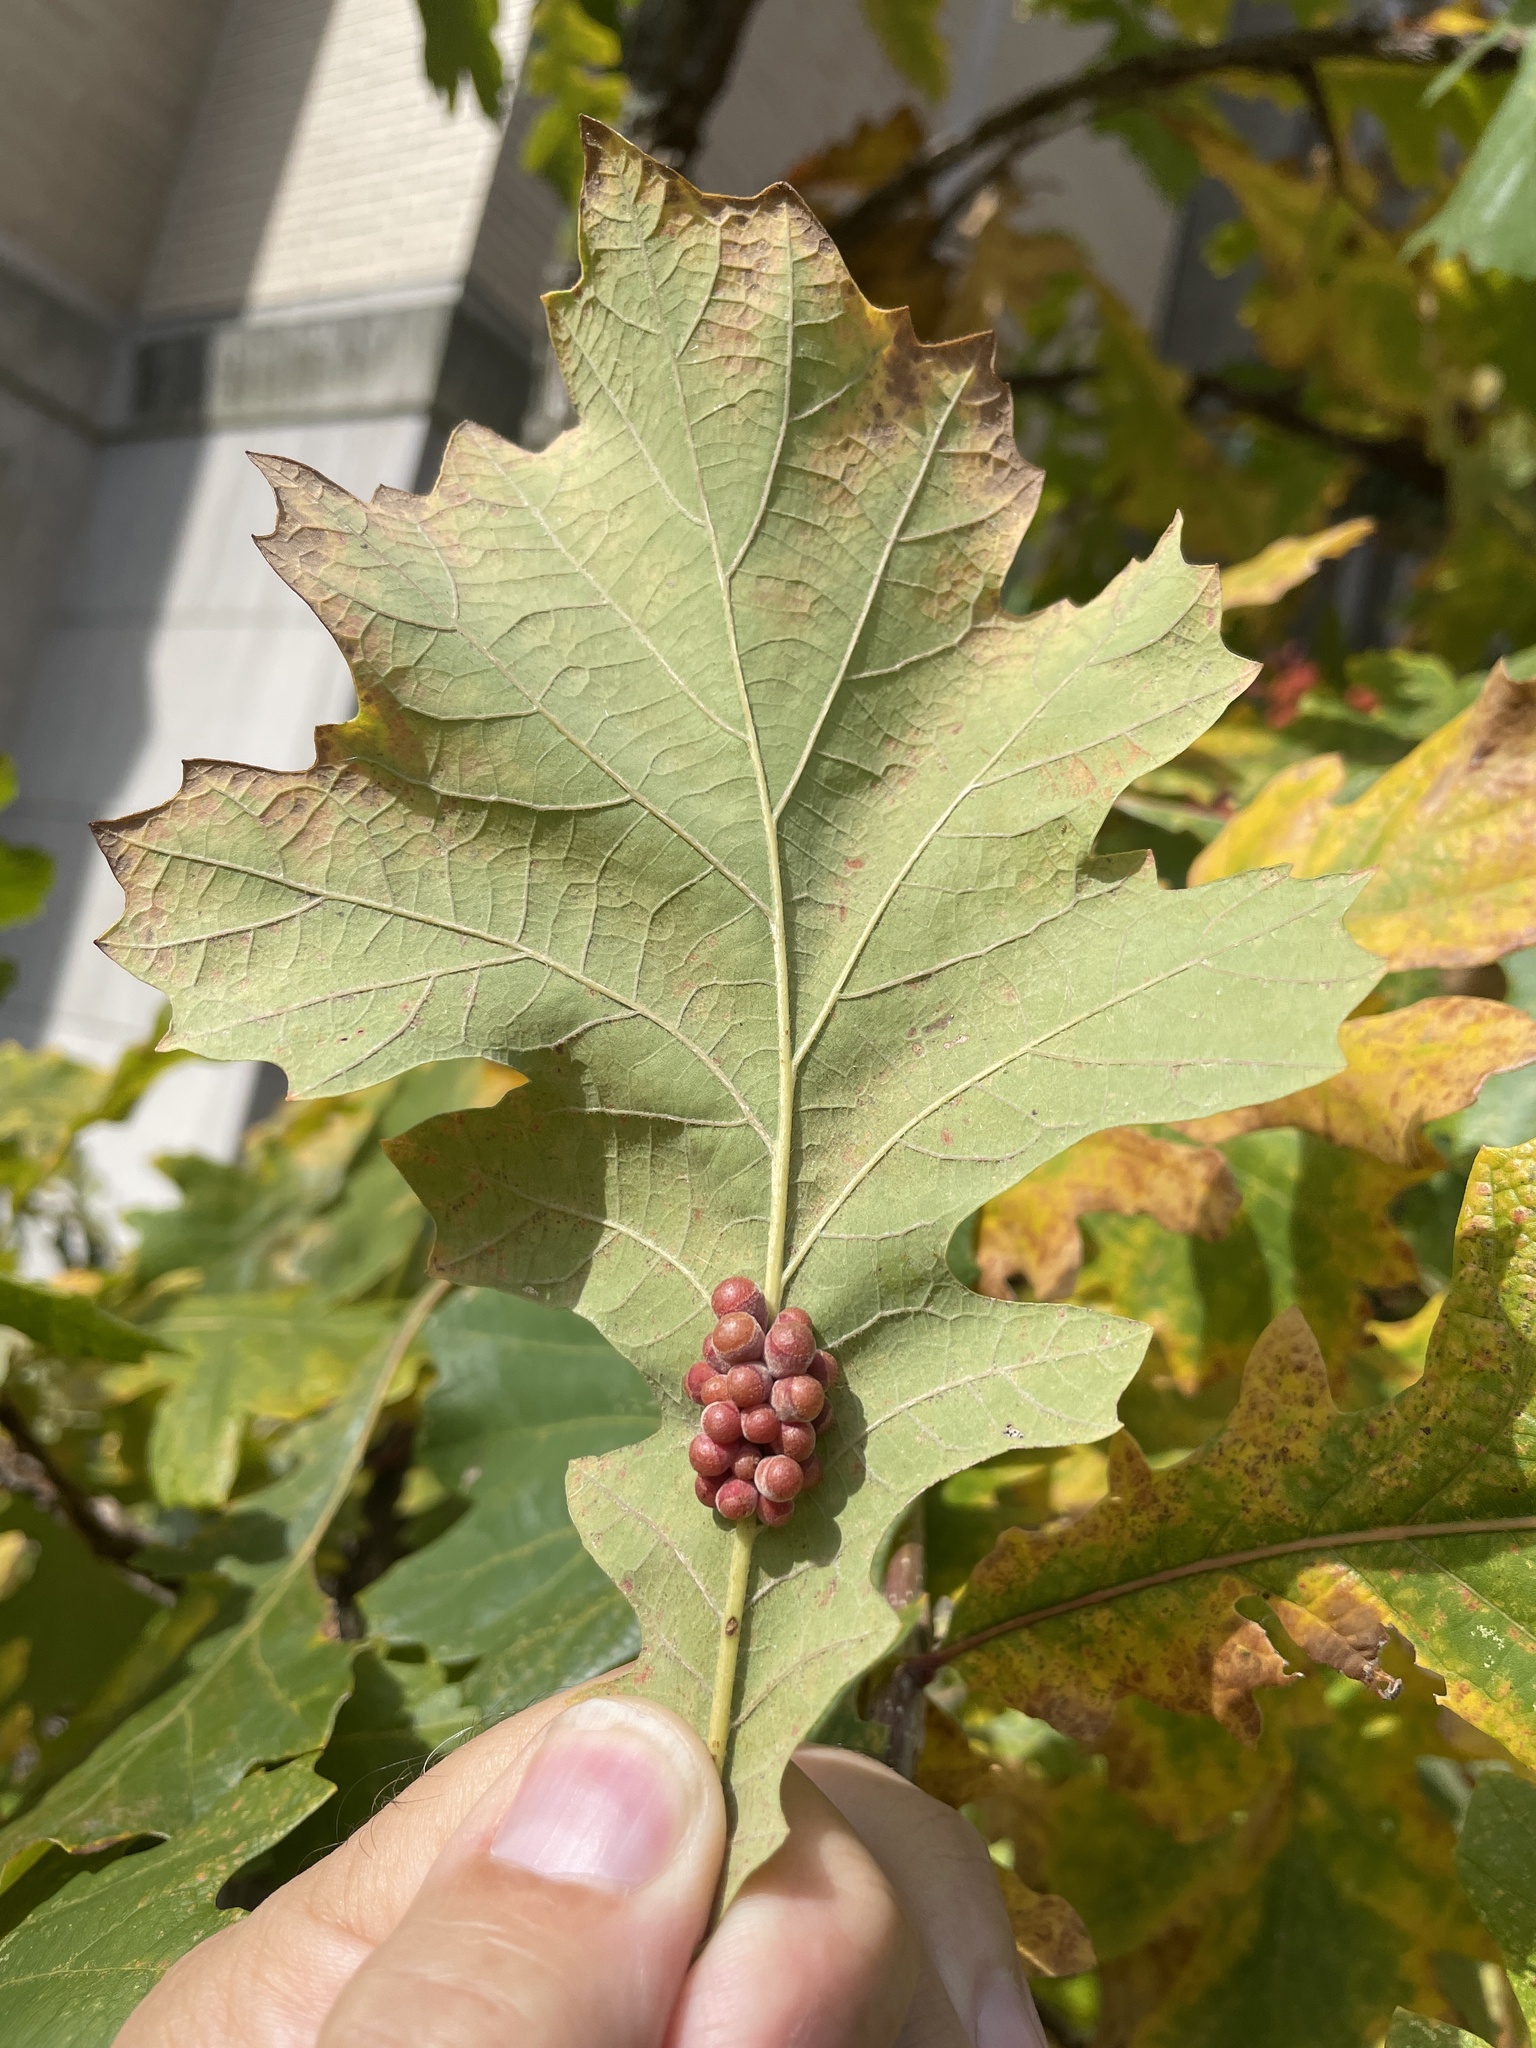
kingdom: Animalia
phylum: Arthropoda
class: Insecta
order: Hymenoptera
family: Cynipidae
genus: Andricus
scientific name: Andricus
